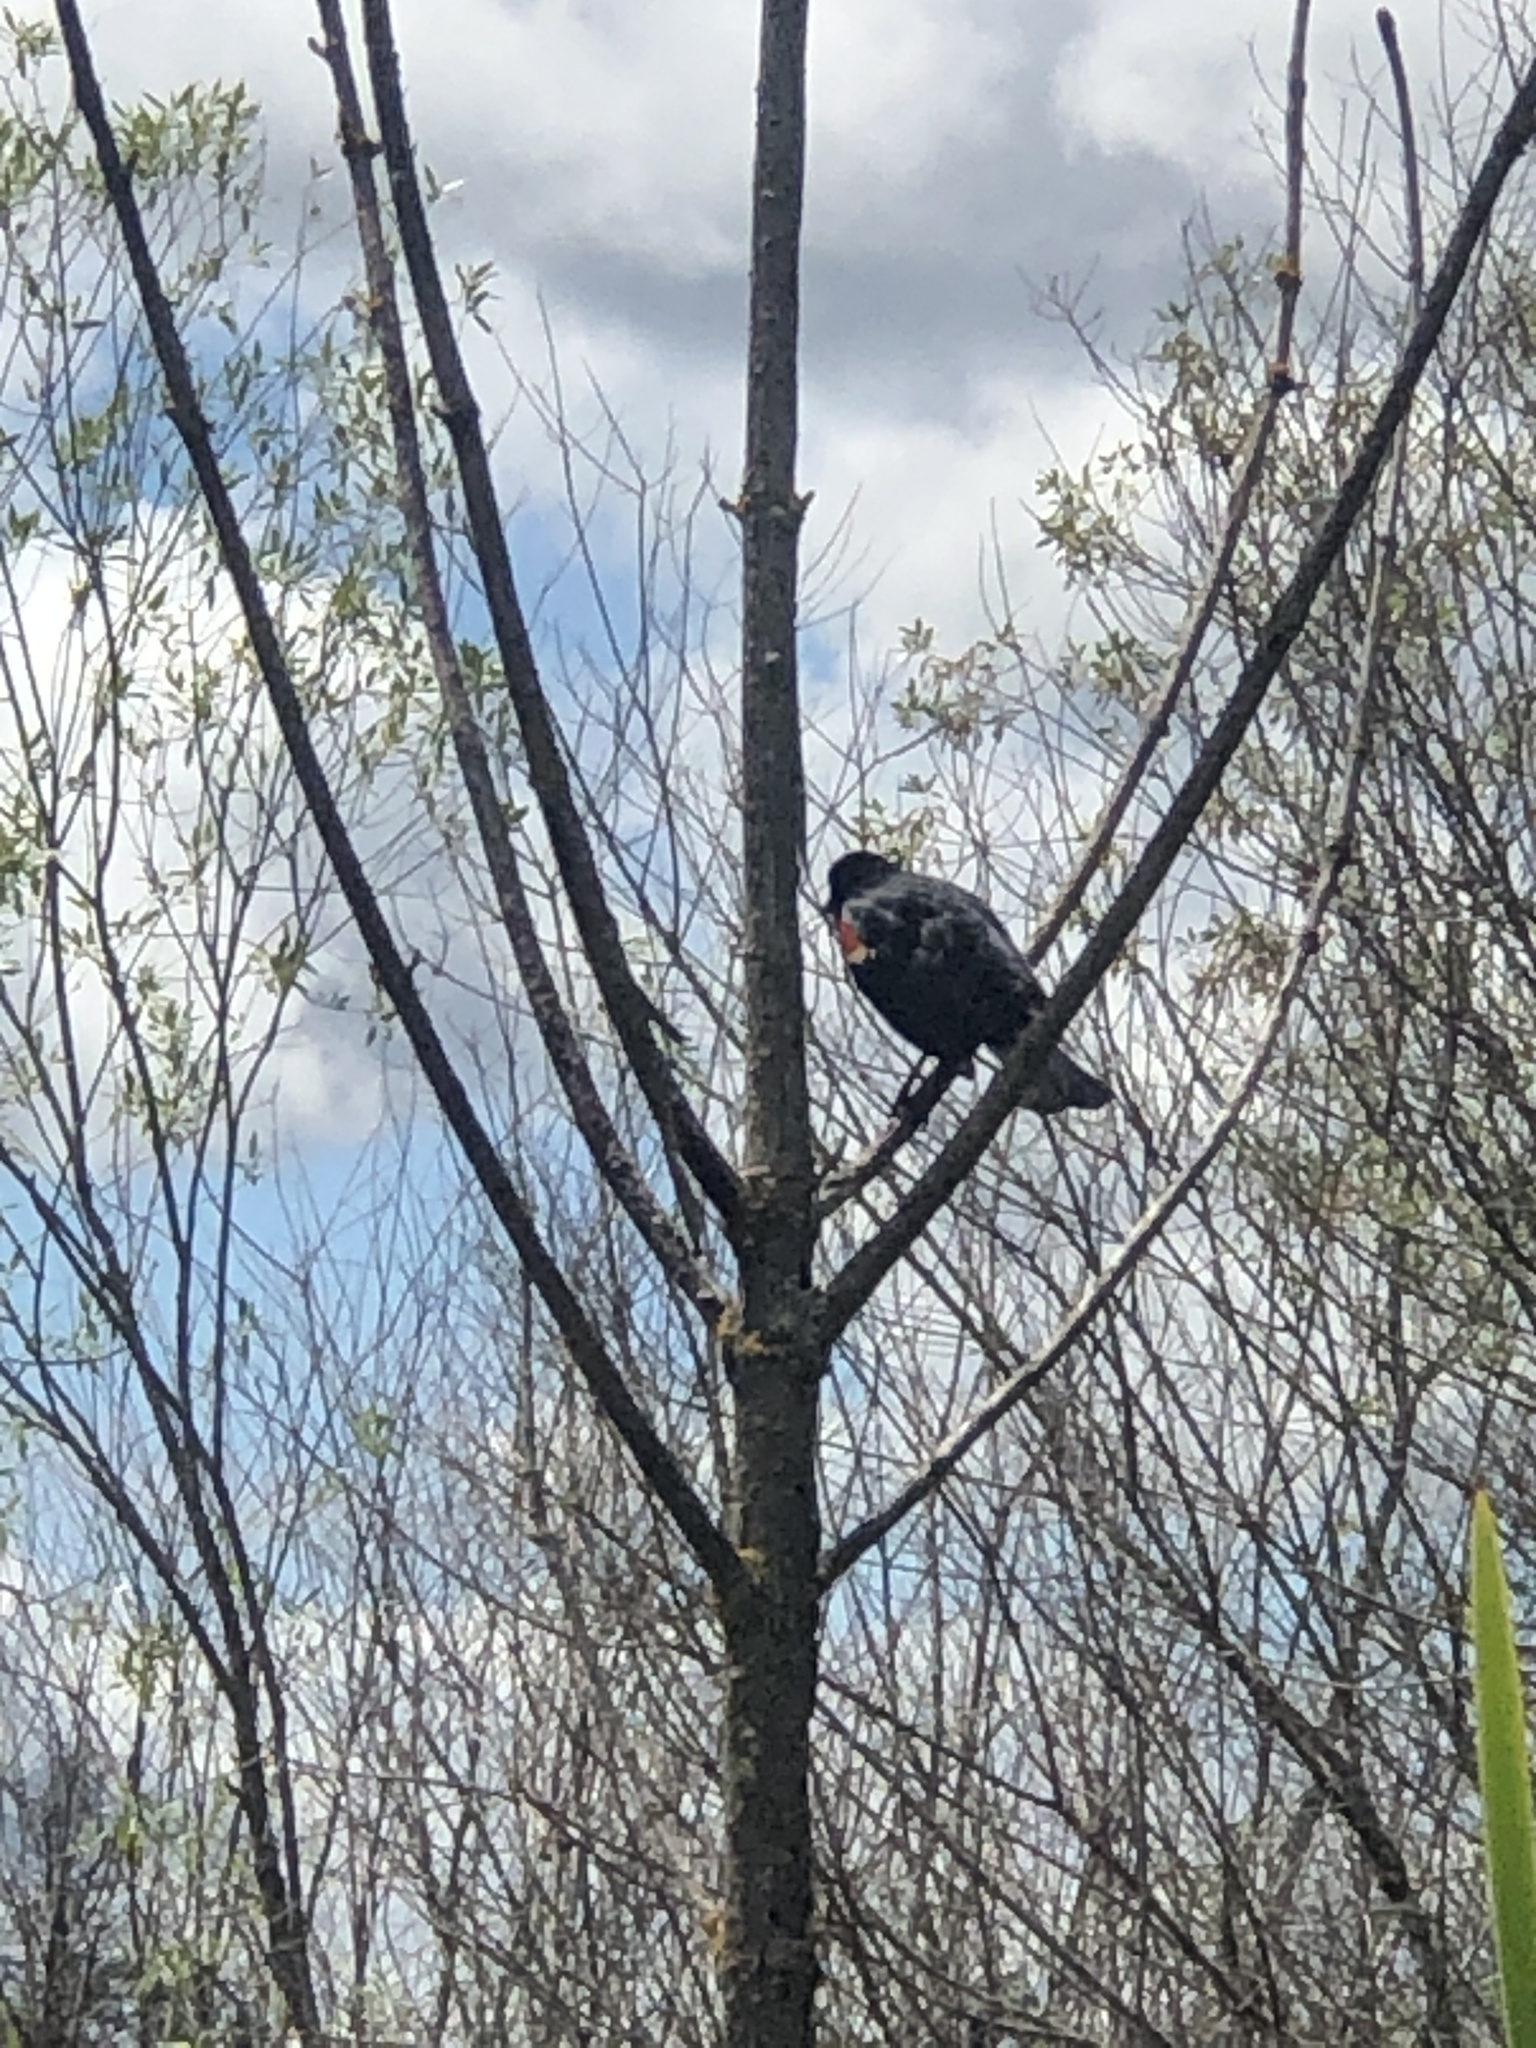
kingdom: Animalia
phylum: Chordata
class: Aves
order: Passeriformes
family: Icteridae
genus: Agelaius
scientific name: Agelaius phoeniceus
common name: Red-winged blackbird
